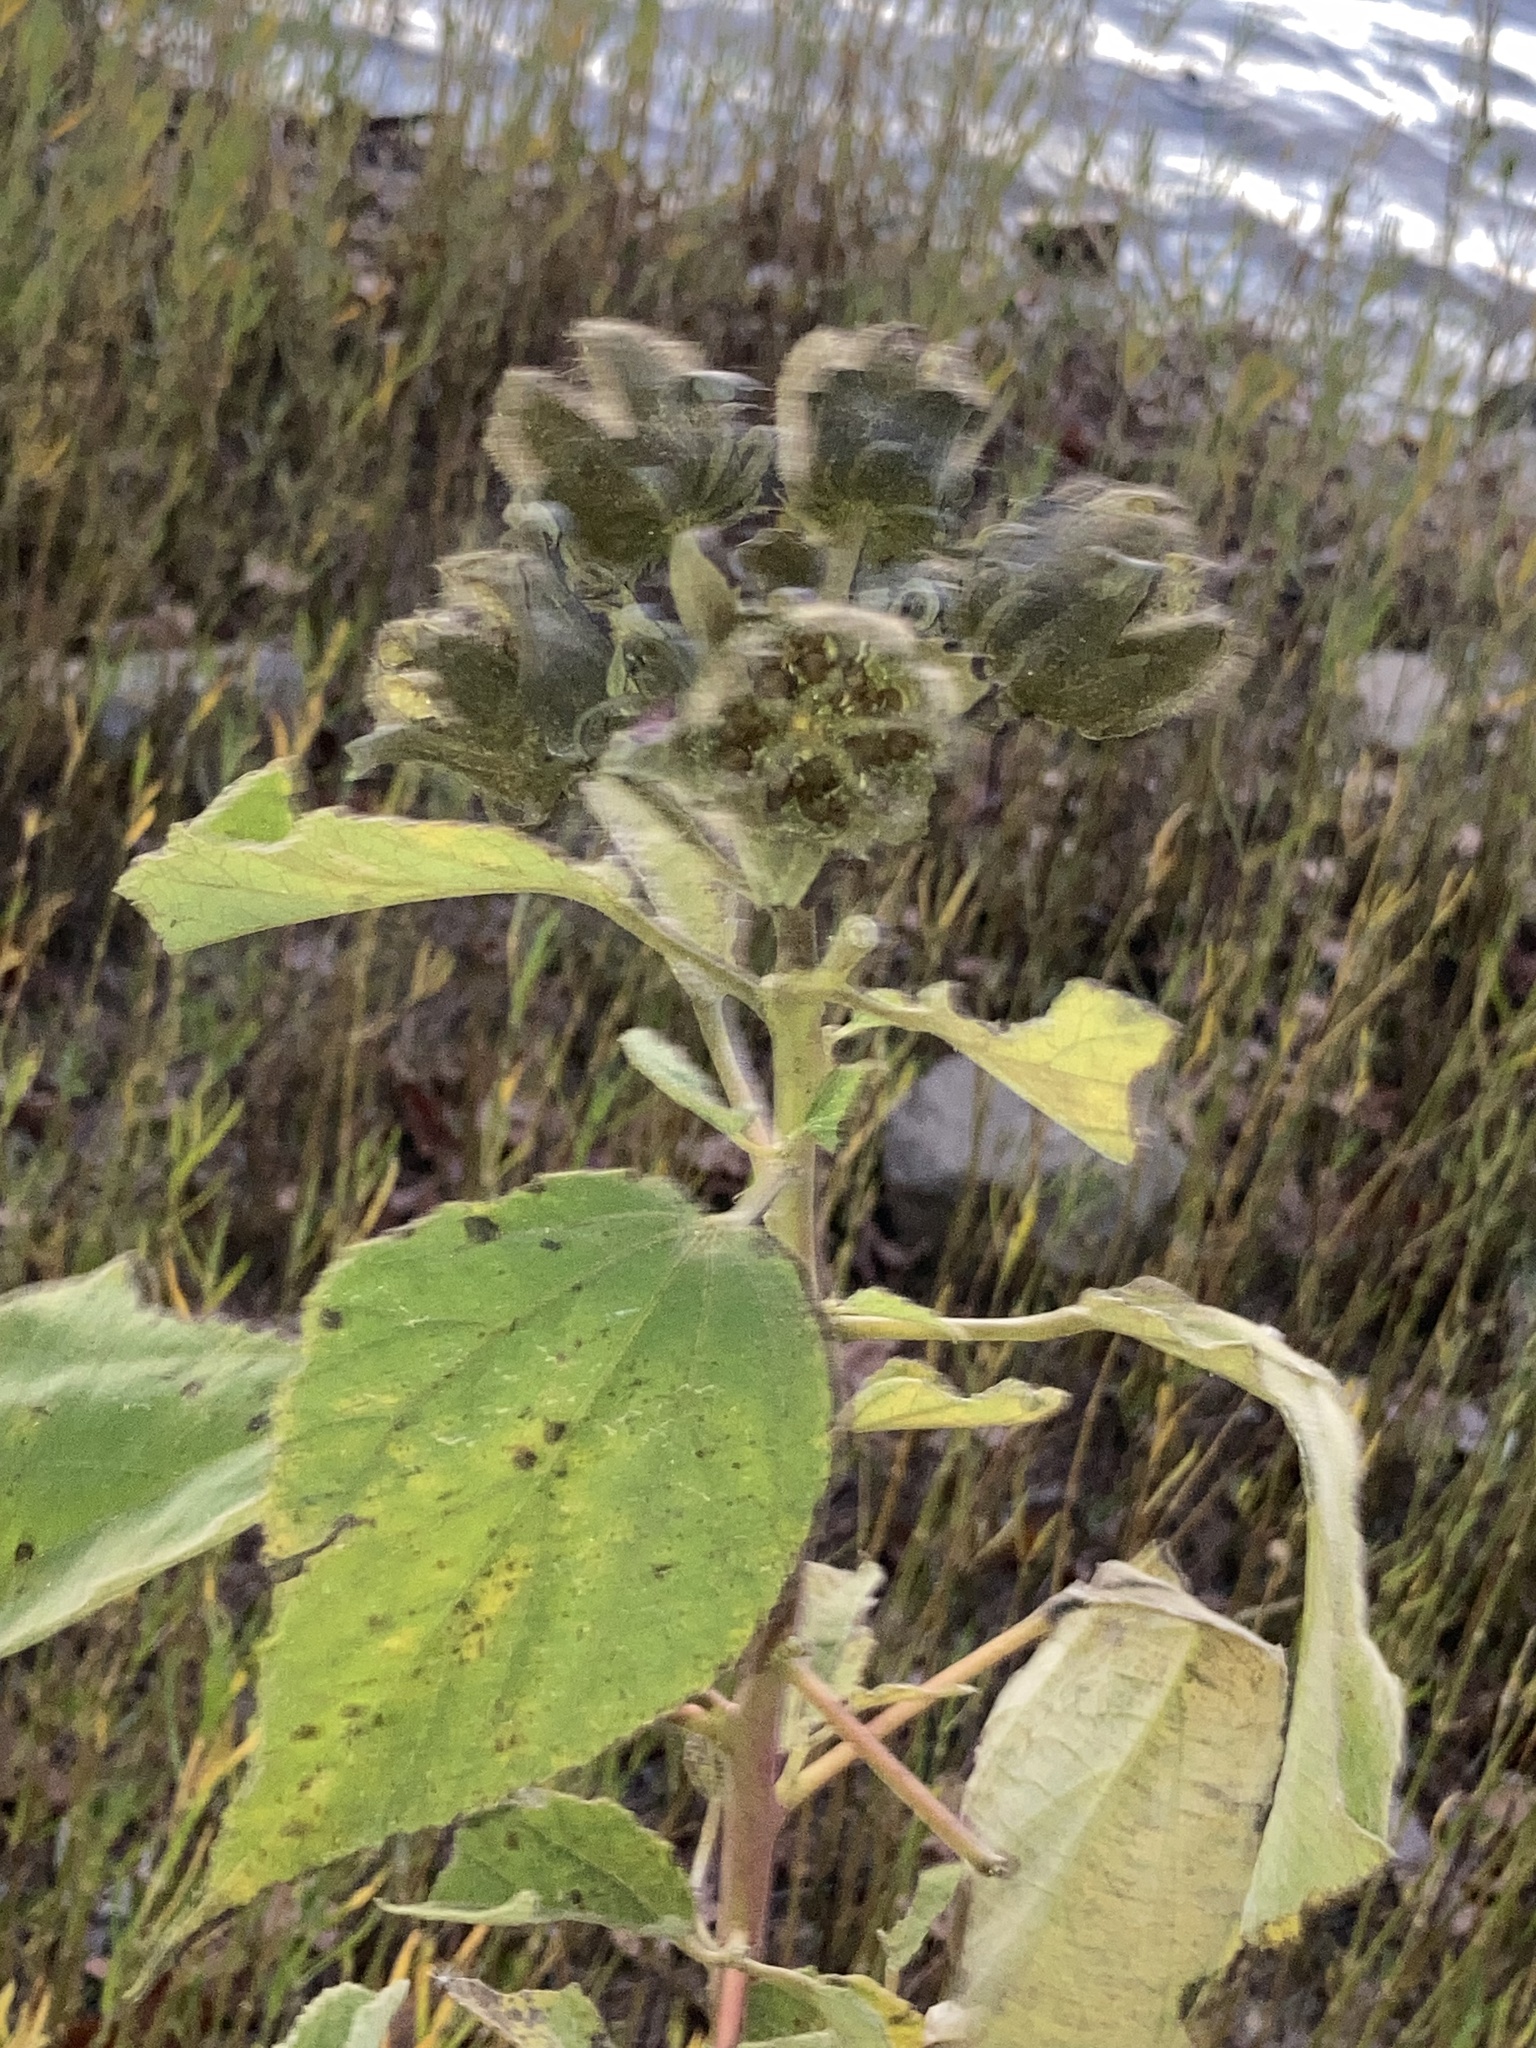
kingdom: Plantae
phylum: Tracheophyta
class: Magnoliopsida
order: Malvales
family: Malvaceae
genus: Hibiscus
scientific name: Hibiscus moscheutos
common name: Common rose-mallow
